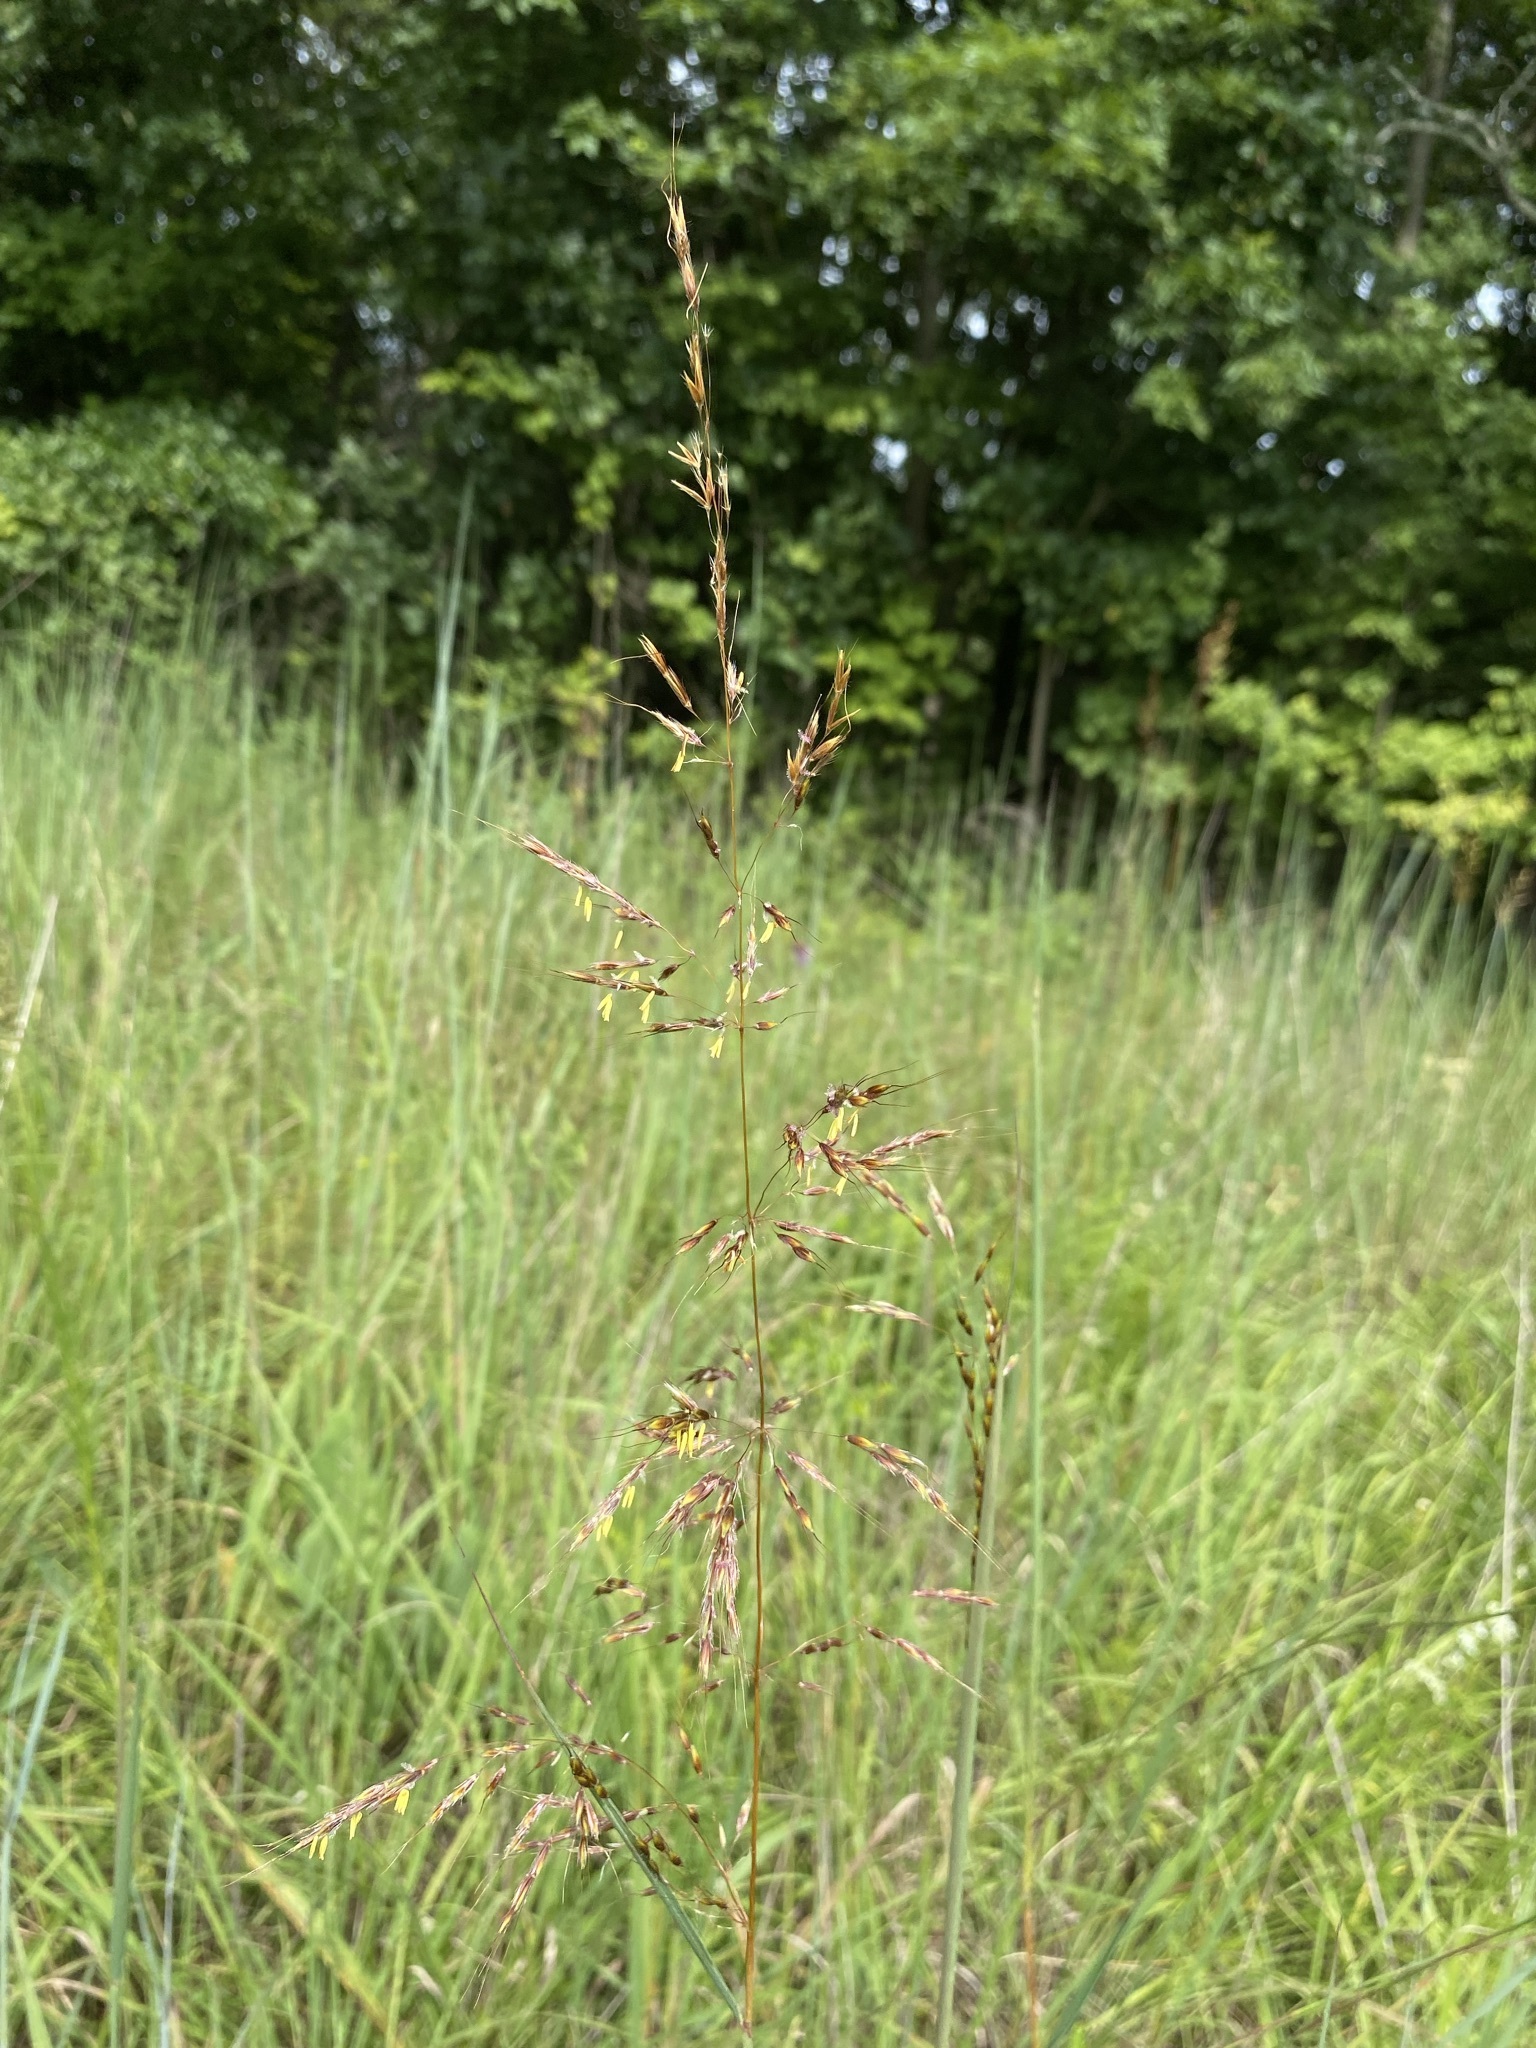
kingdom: Plantae
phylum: Tracheophyta
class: Liliopsida
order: Poales
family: Poaceae
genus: Sorghastrum
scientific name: Sorghastrum nutans
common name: Indian grass
